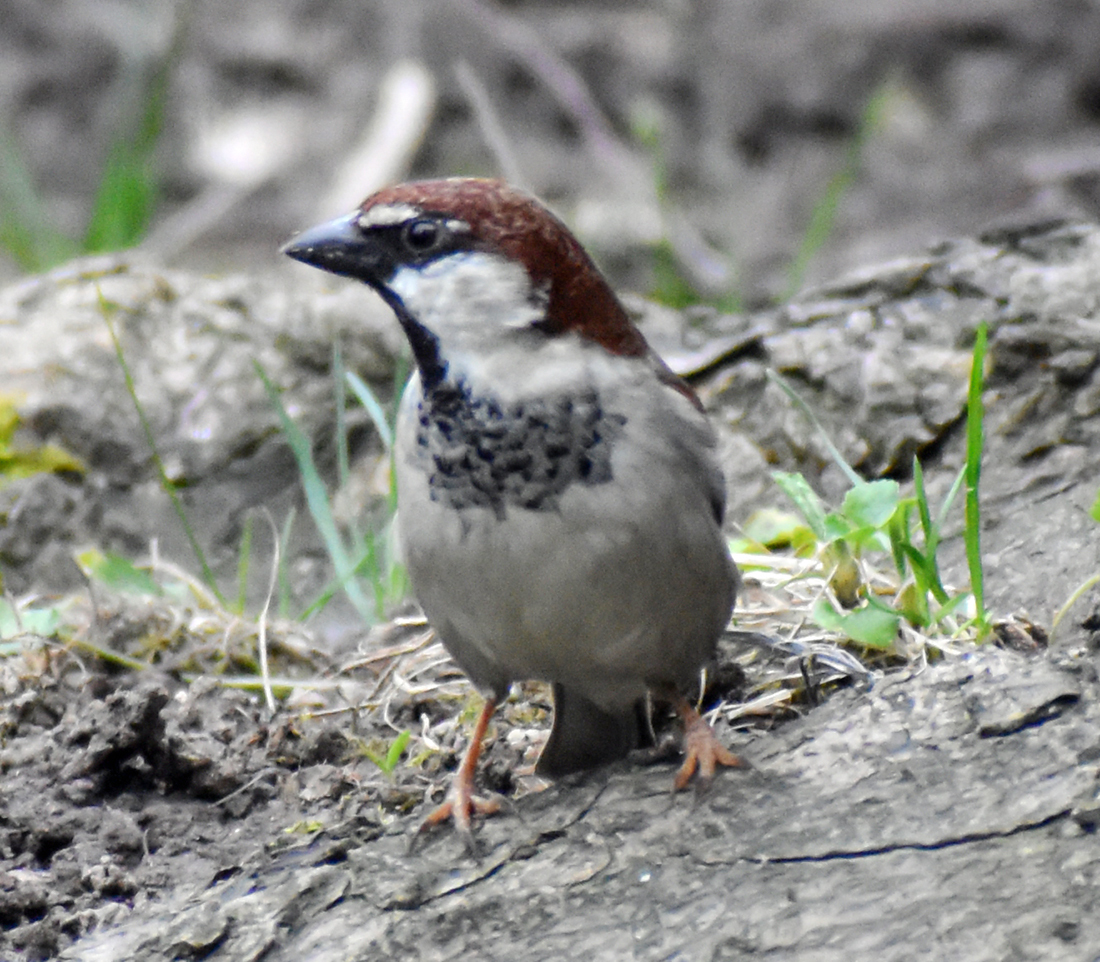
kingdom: Animalia
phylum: Chordata
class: Aves
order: Passeriformes
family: Passeridae
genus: Passer
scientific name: Passer italiae
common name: Italian sparrow
